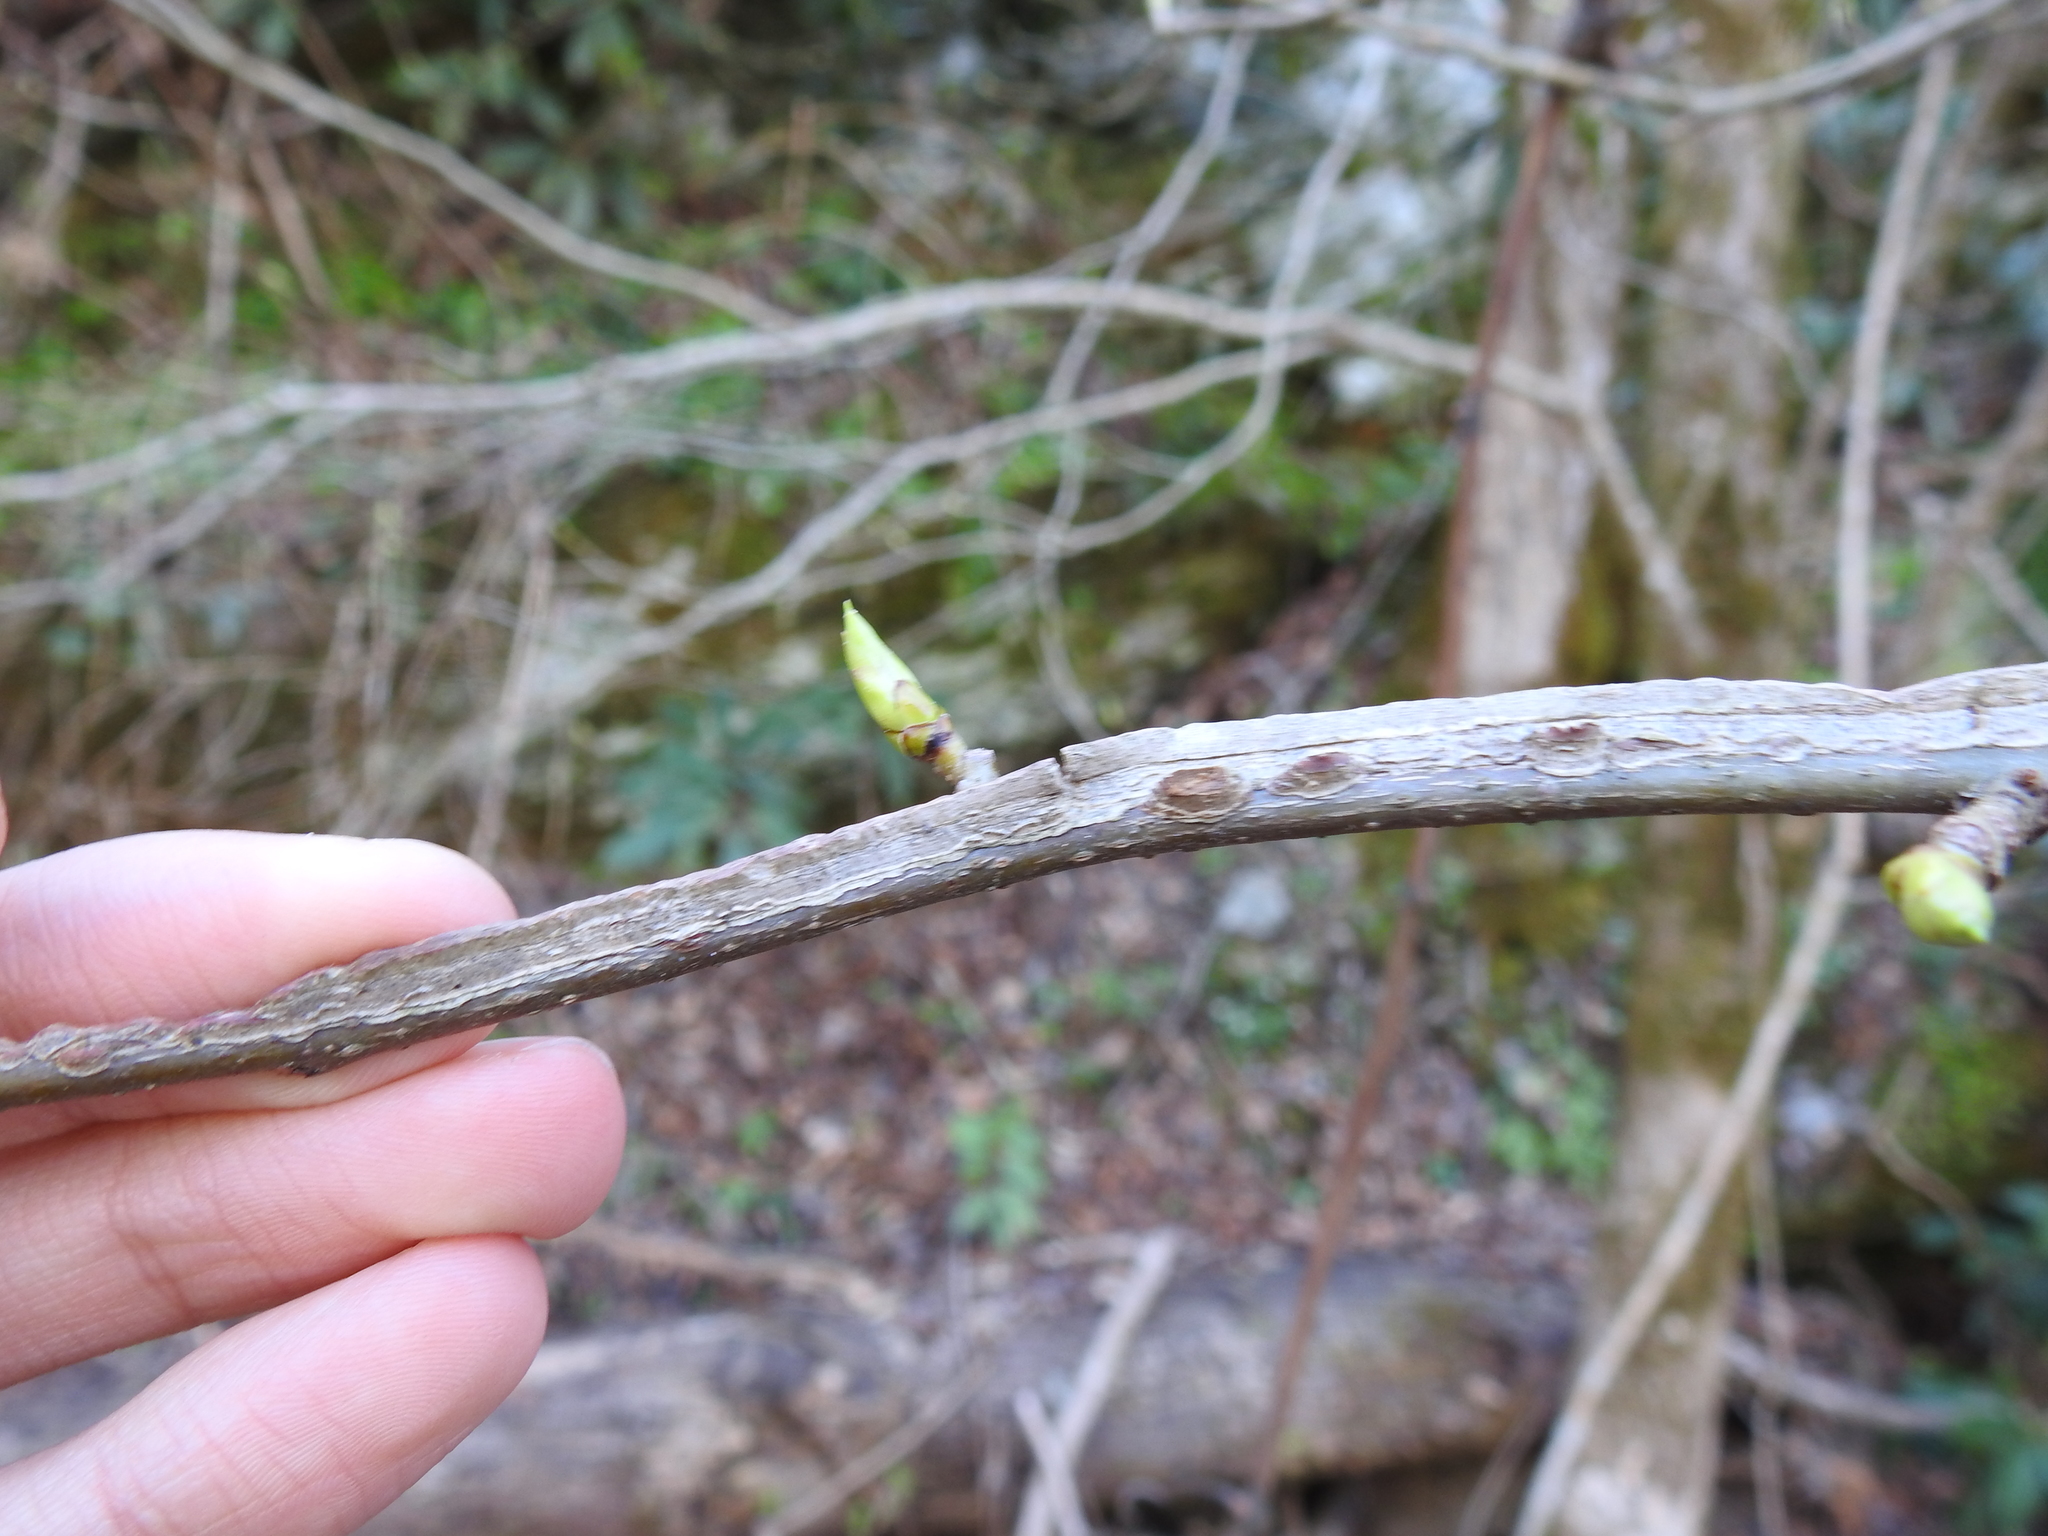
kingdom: Plantae
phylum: Tracheophyta
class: Magnoliopsida
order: Saxifragales
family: Altingiaceae
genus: Liquidambar
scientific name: Liquidambar styraciflua
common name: Sweet gum
